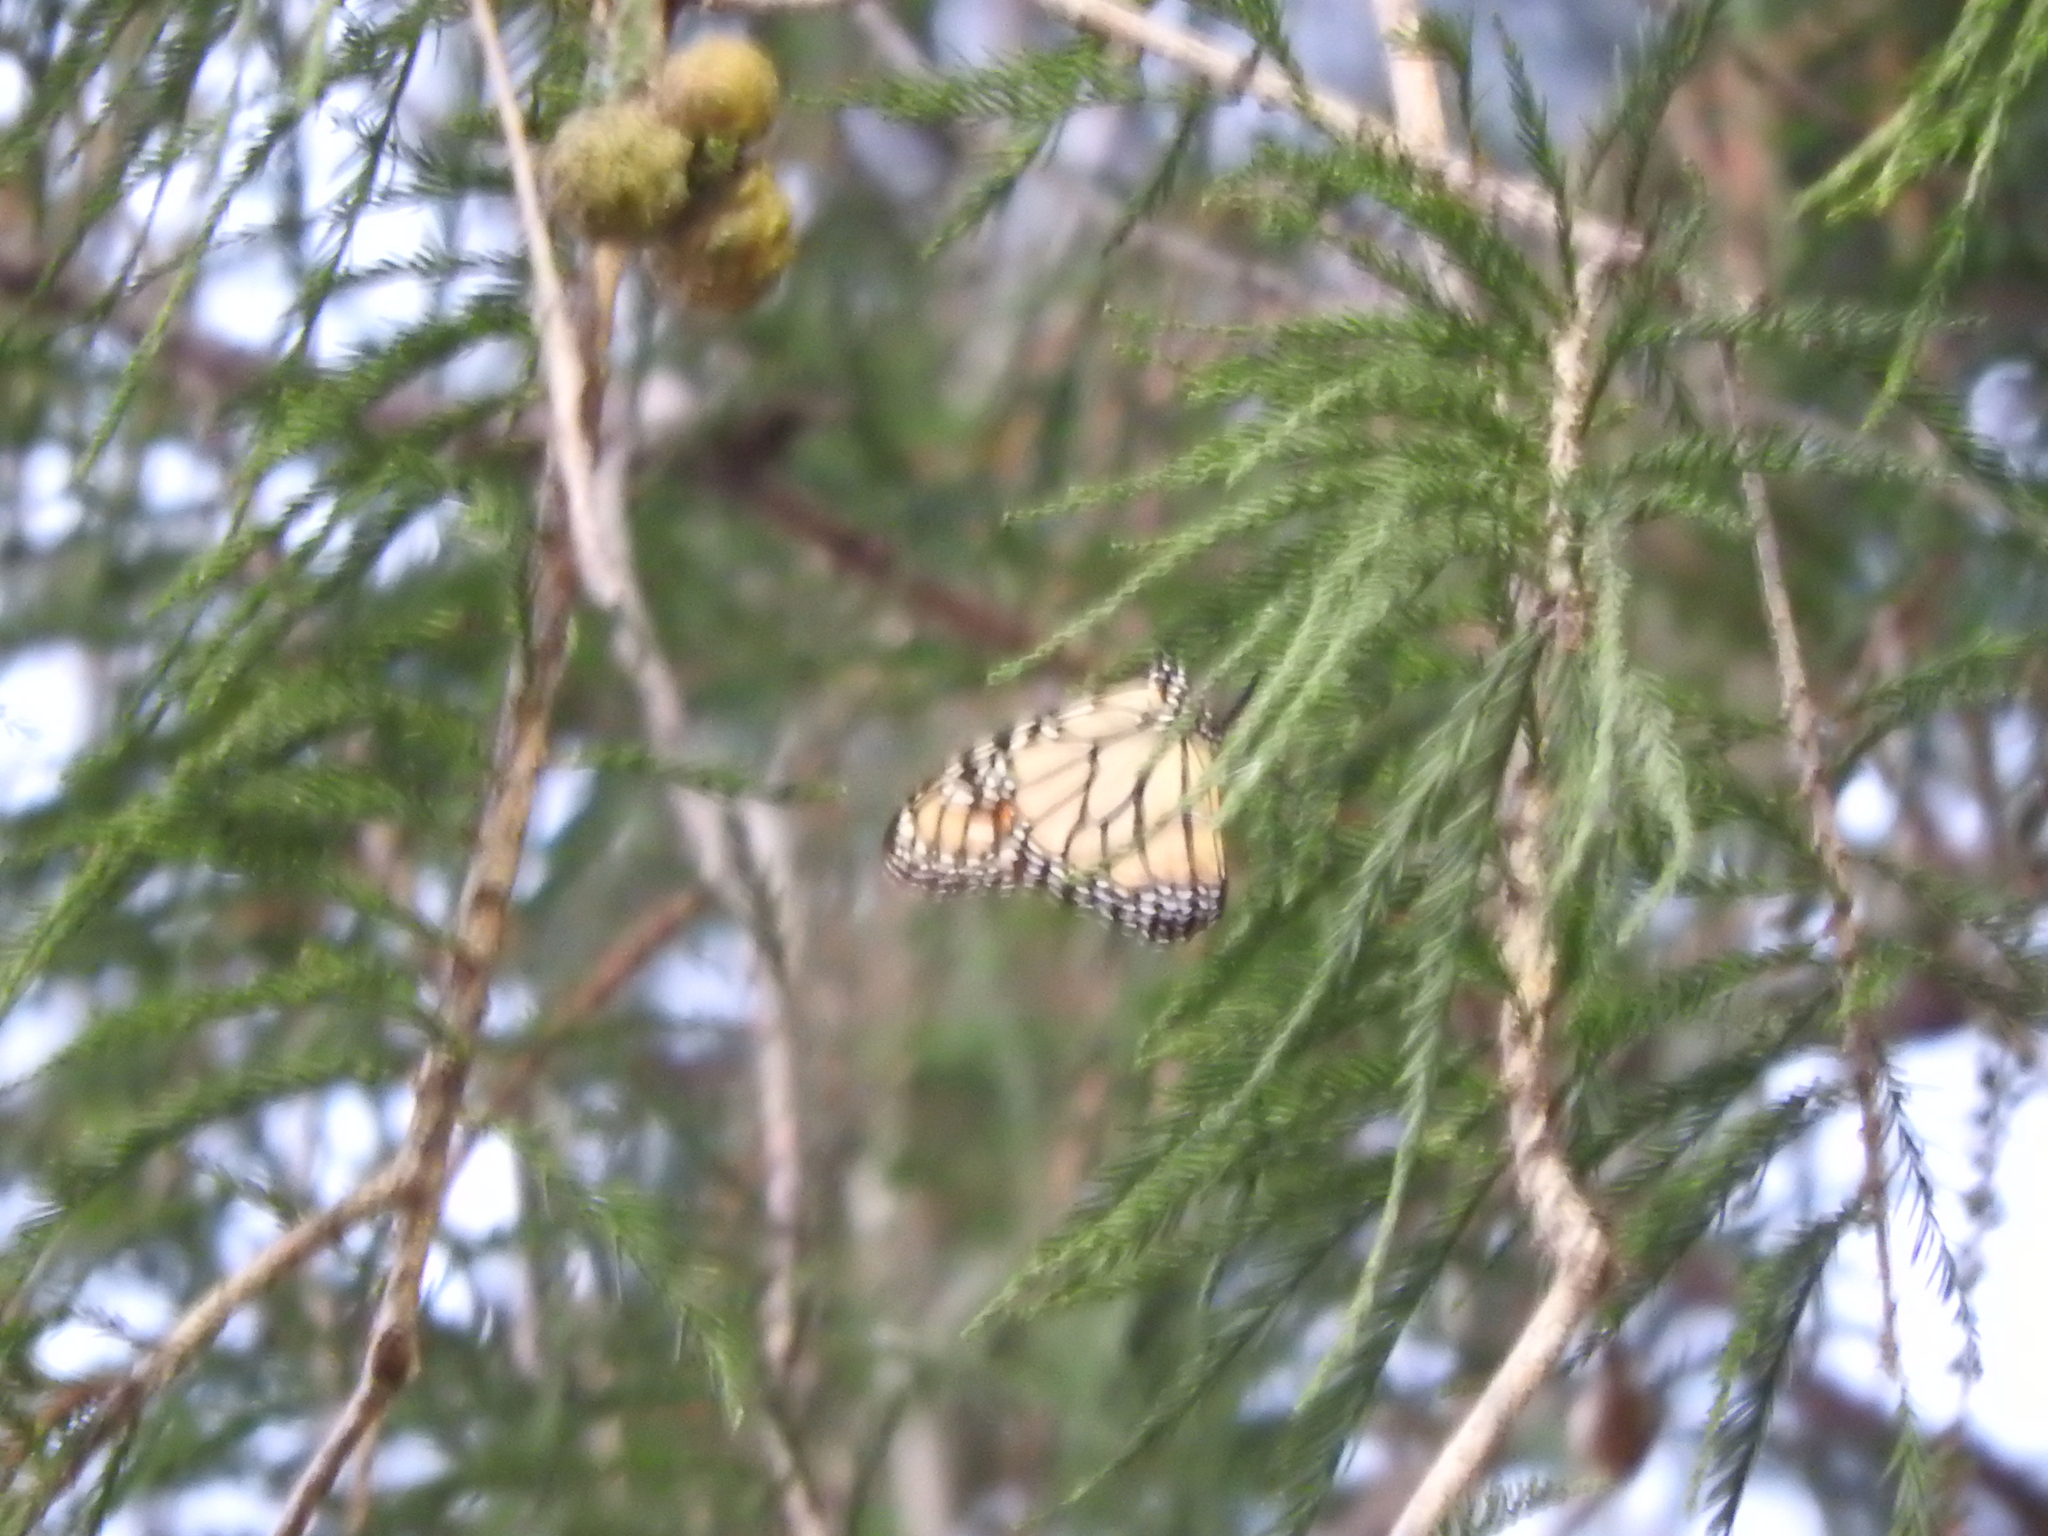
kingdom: Animalia
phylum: Arthropoda
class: Insecta
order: Lepidoptera
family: Nymphalidae
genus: Danaus
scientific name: Danaus plexippus
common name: Monarch
